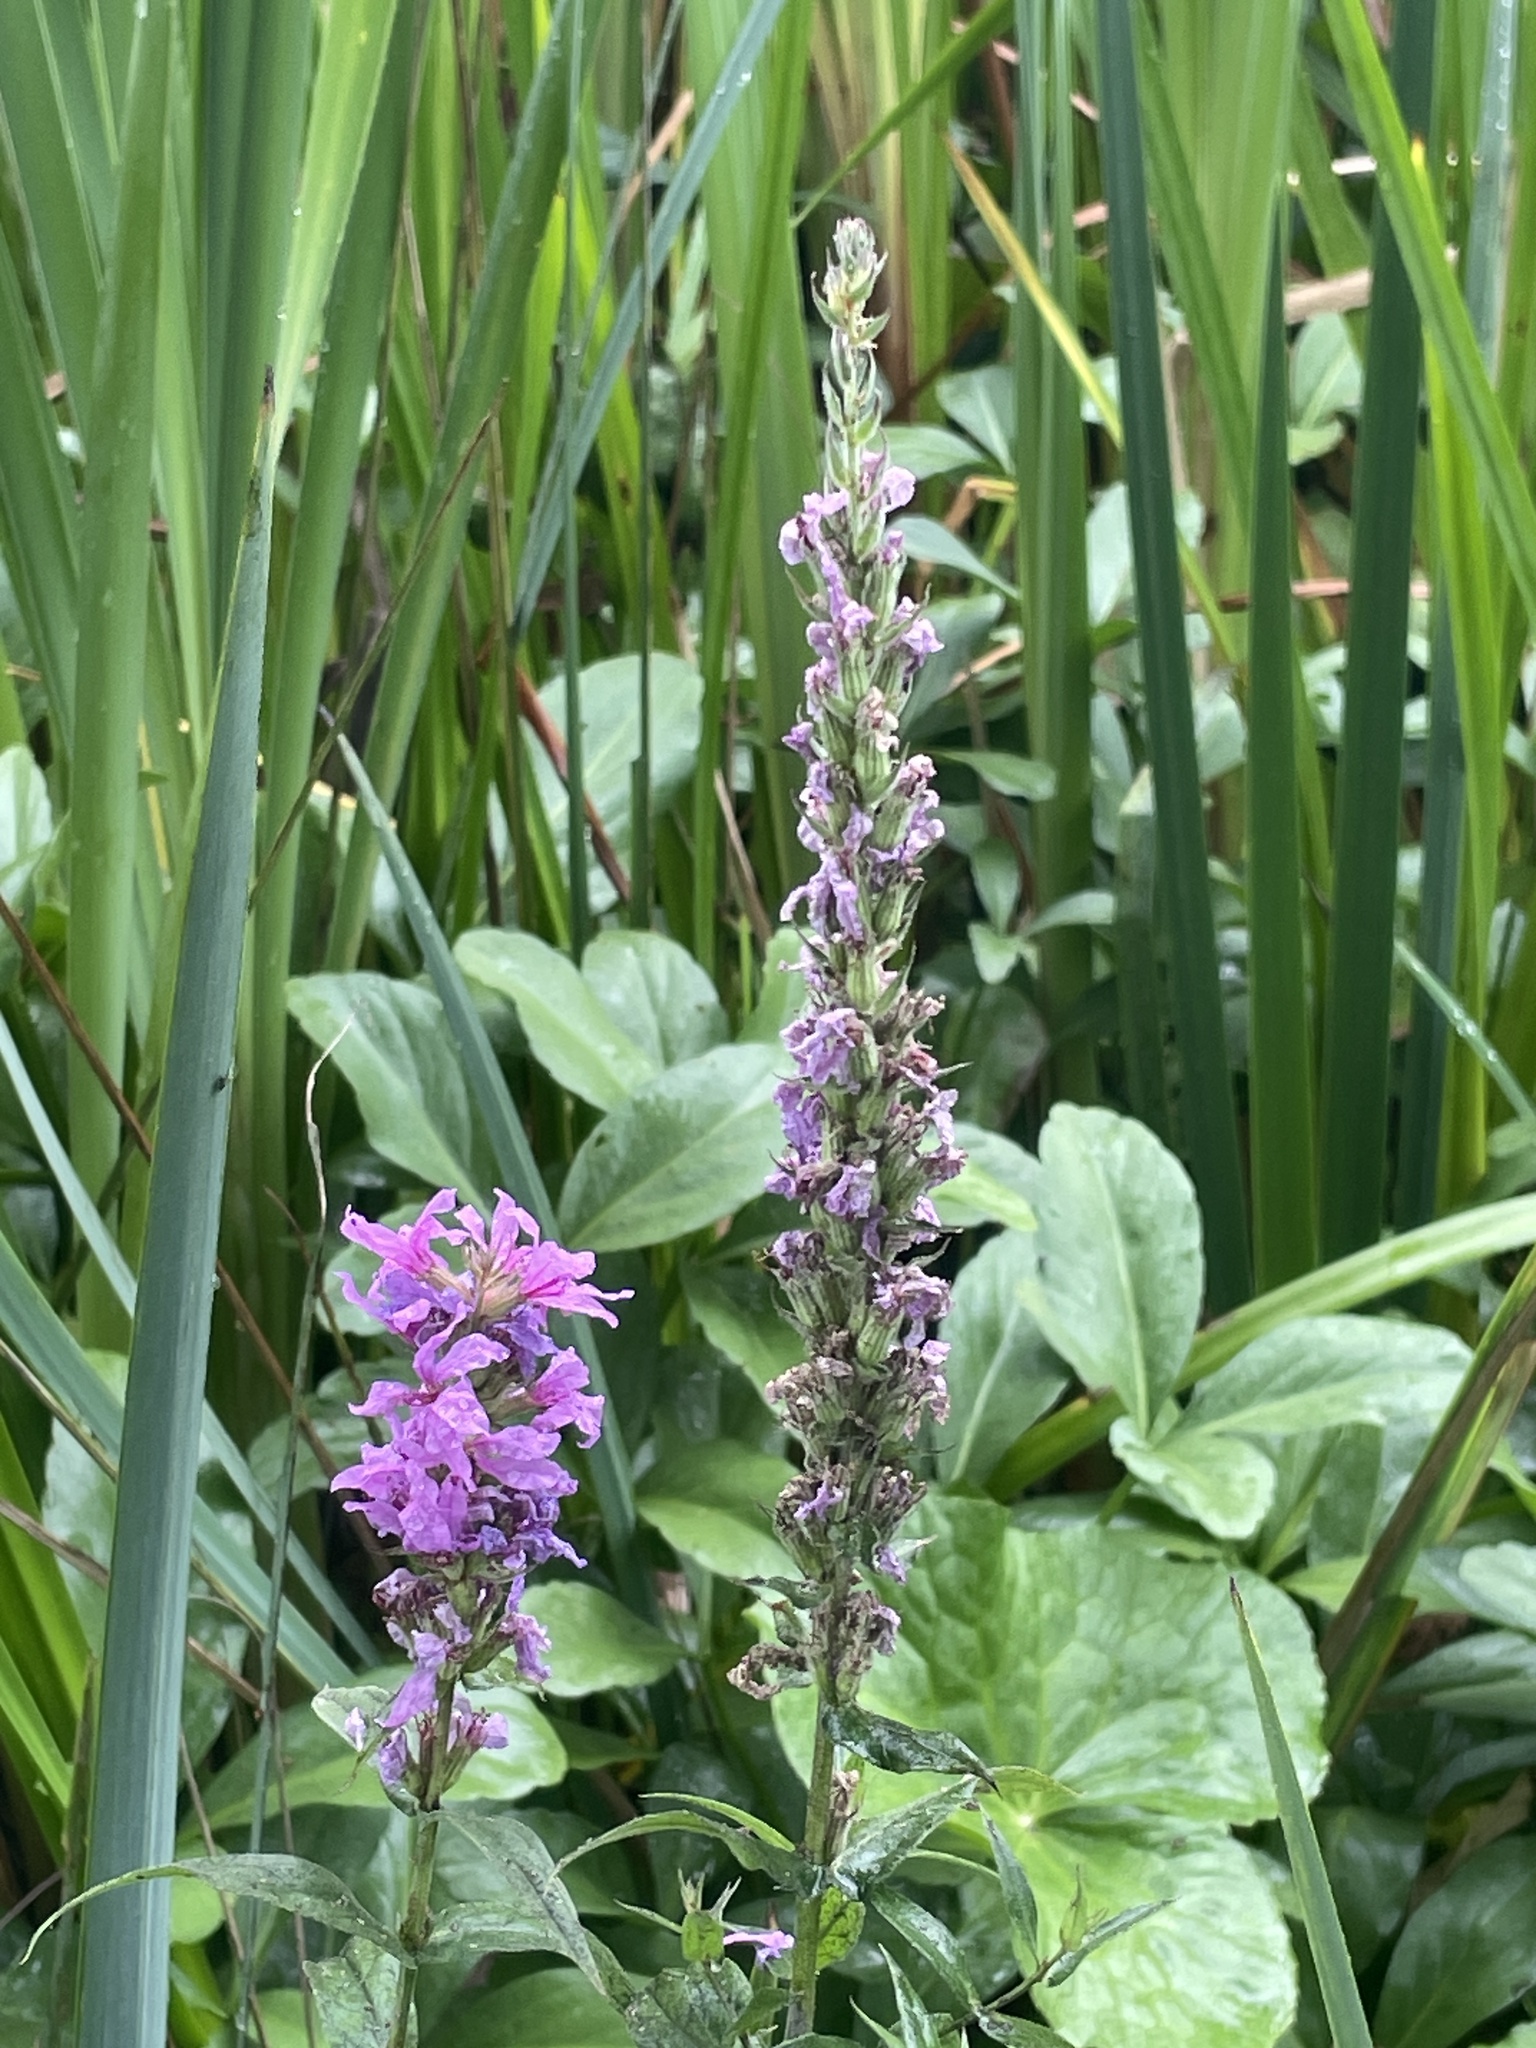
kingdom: Plantae
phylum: Tracheophyta
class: Magnoliopsida
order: Myrtales
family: Lythraceae
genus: Lythrum
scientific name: Lythrum salicaria
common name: Purple loosestrife
